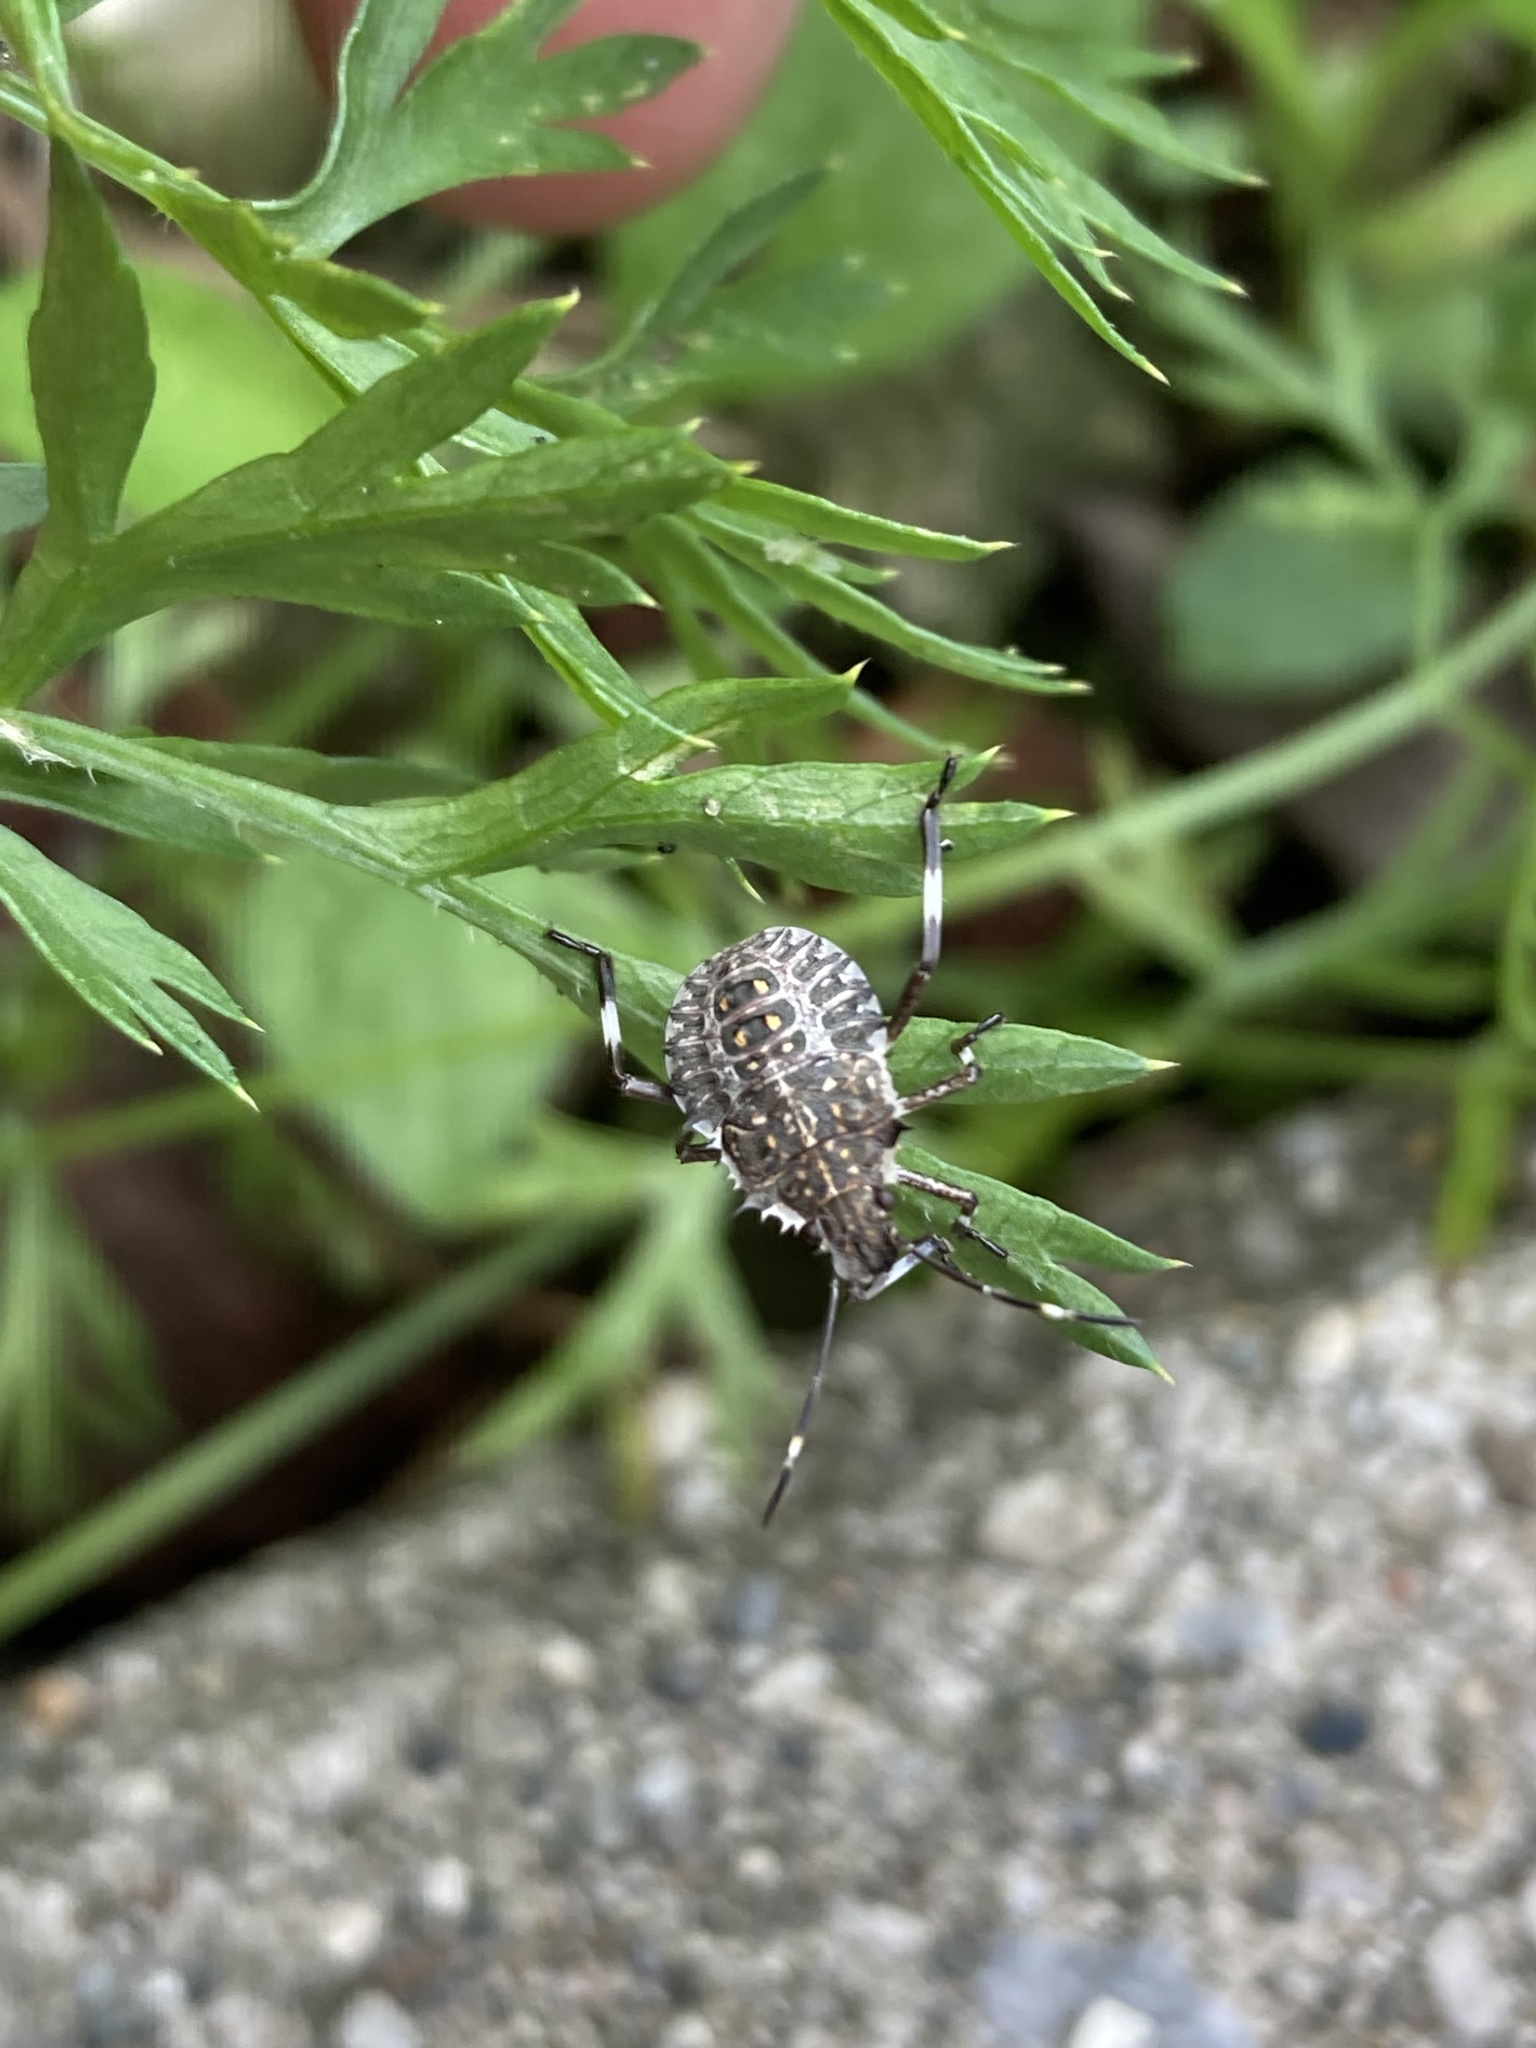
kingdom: Animalia
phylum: Arthropoda
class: Insecta
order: Hemiptera
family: Pentatomidae
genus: Halyomorpha
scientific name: Halyomorpha halys
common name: Brown marmorated stink bug
